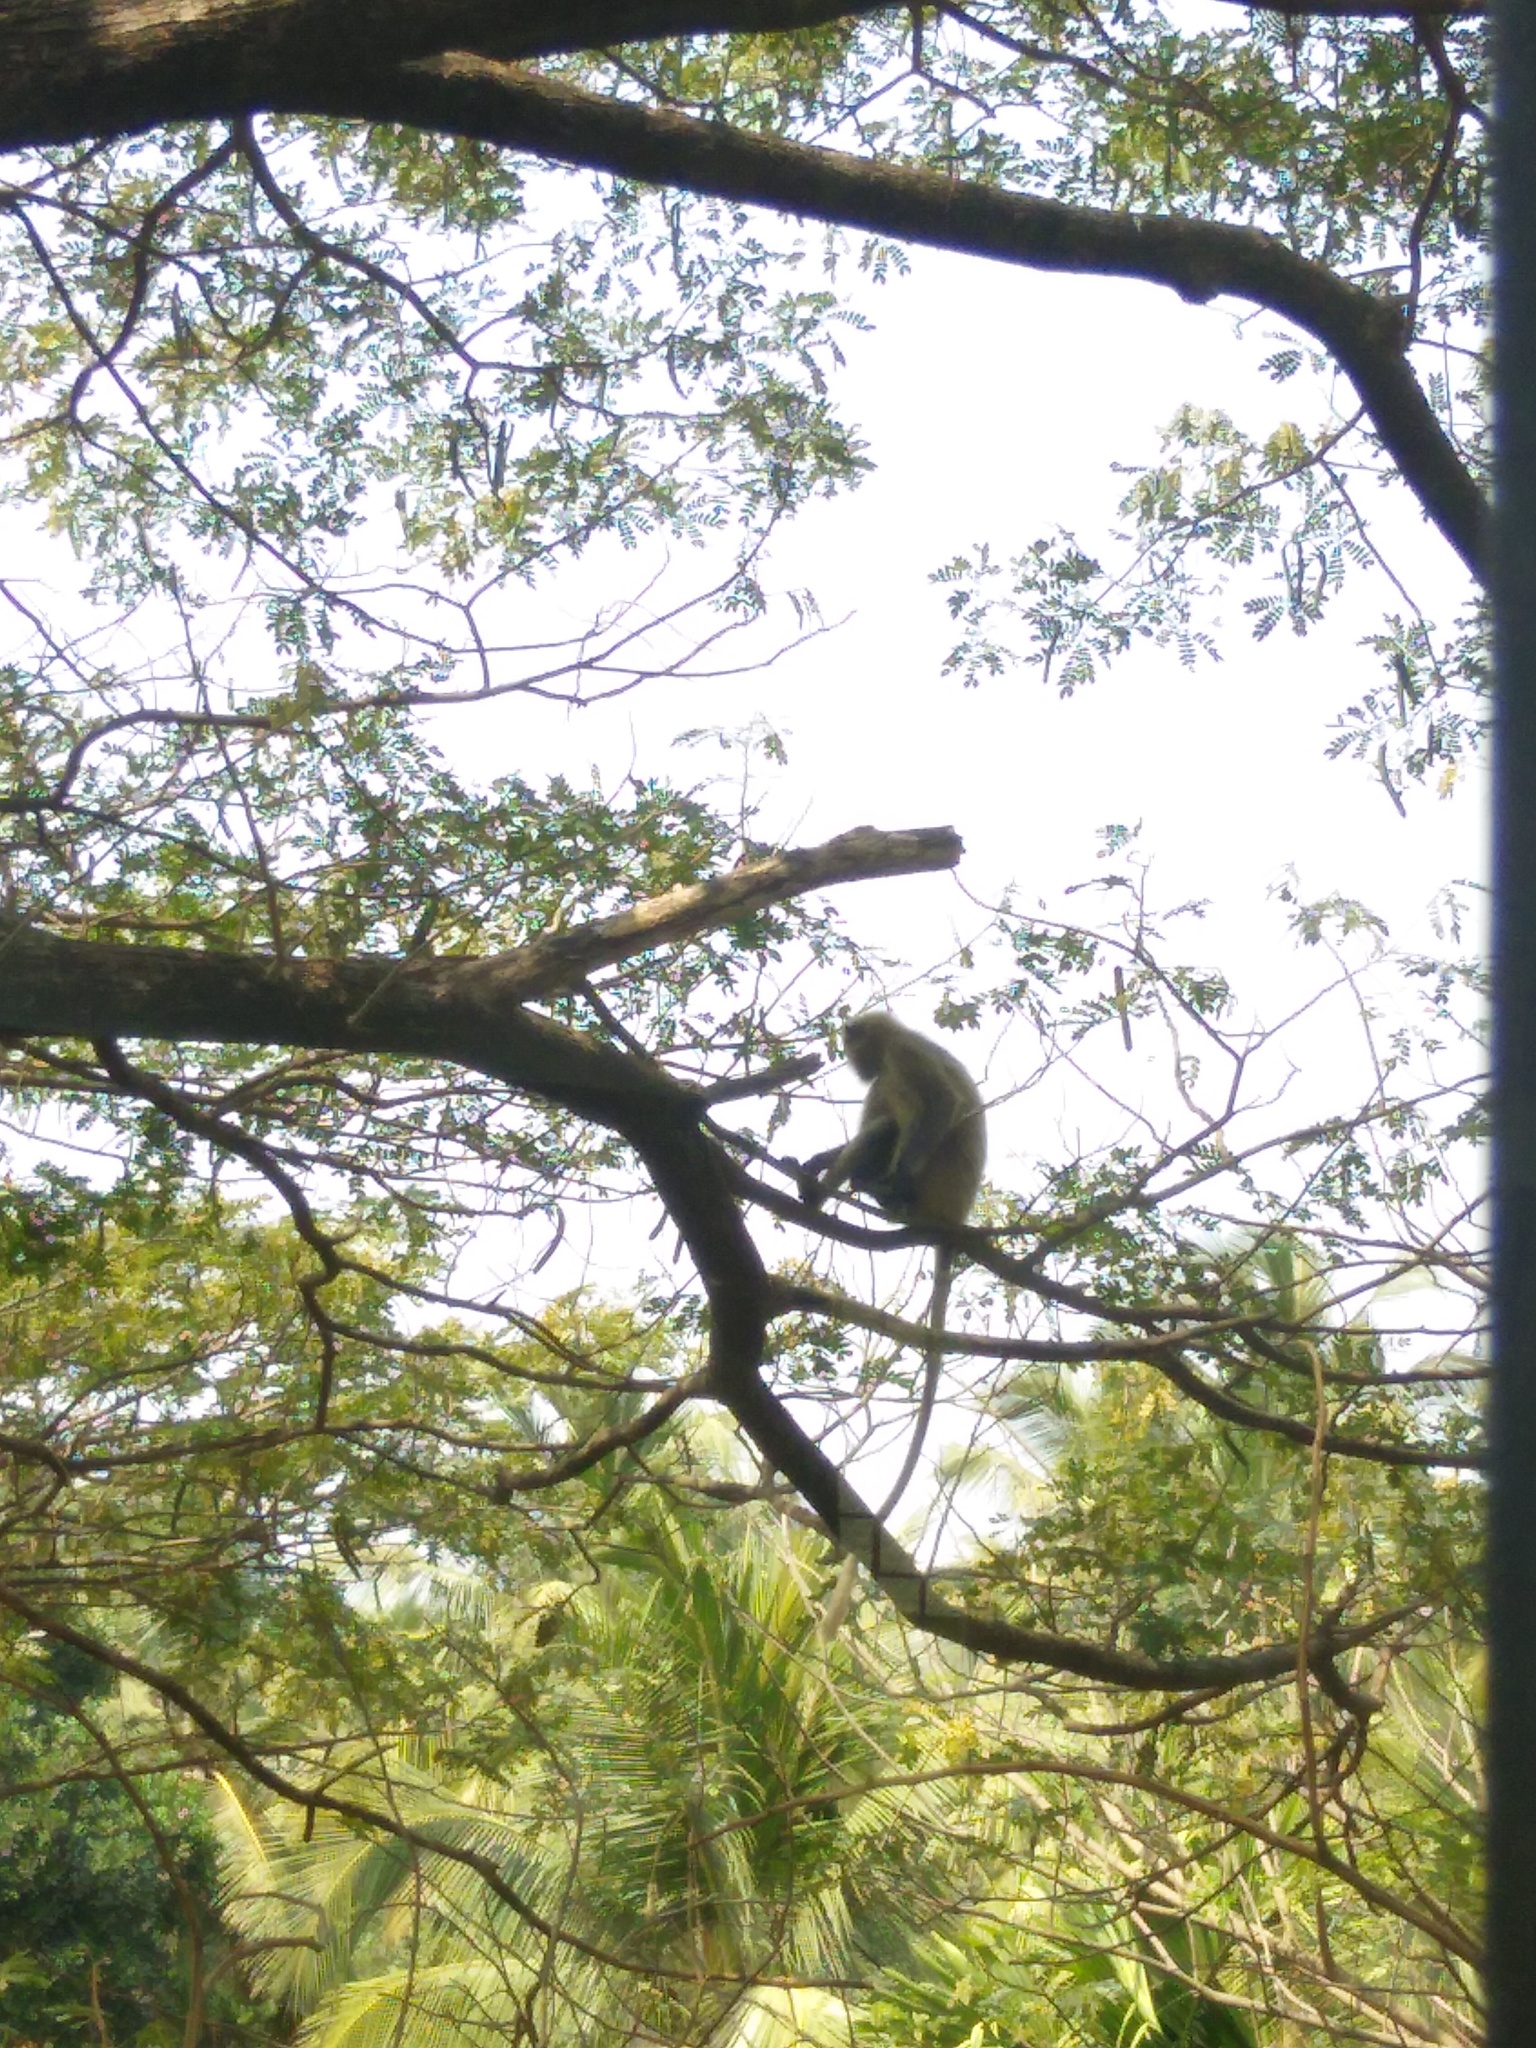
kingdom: Animalia
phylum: Chordata
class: Mammalia
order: Primates
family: Cercopithecidae
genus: Semnopithecus
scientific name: Semnopithecus hypoleucos
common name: Black-footed gray langur
